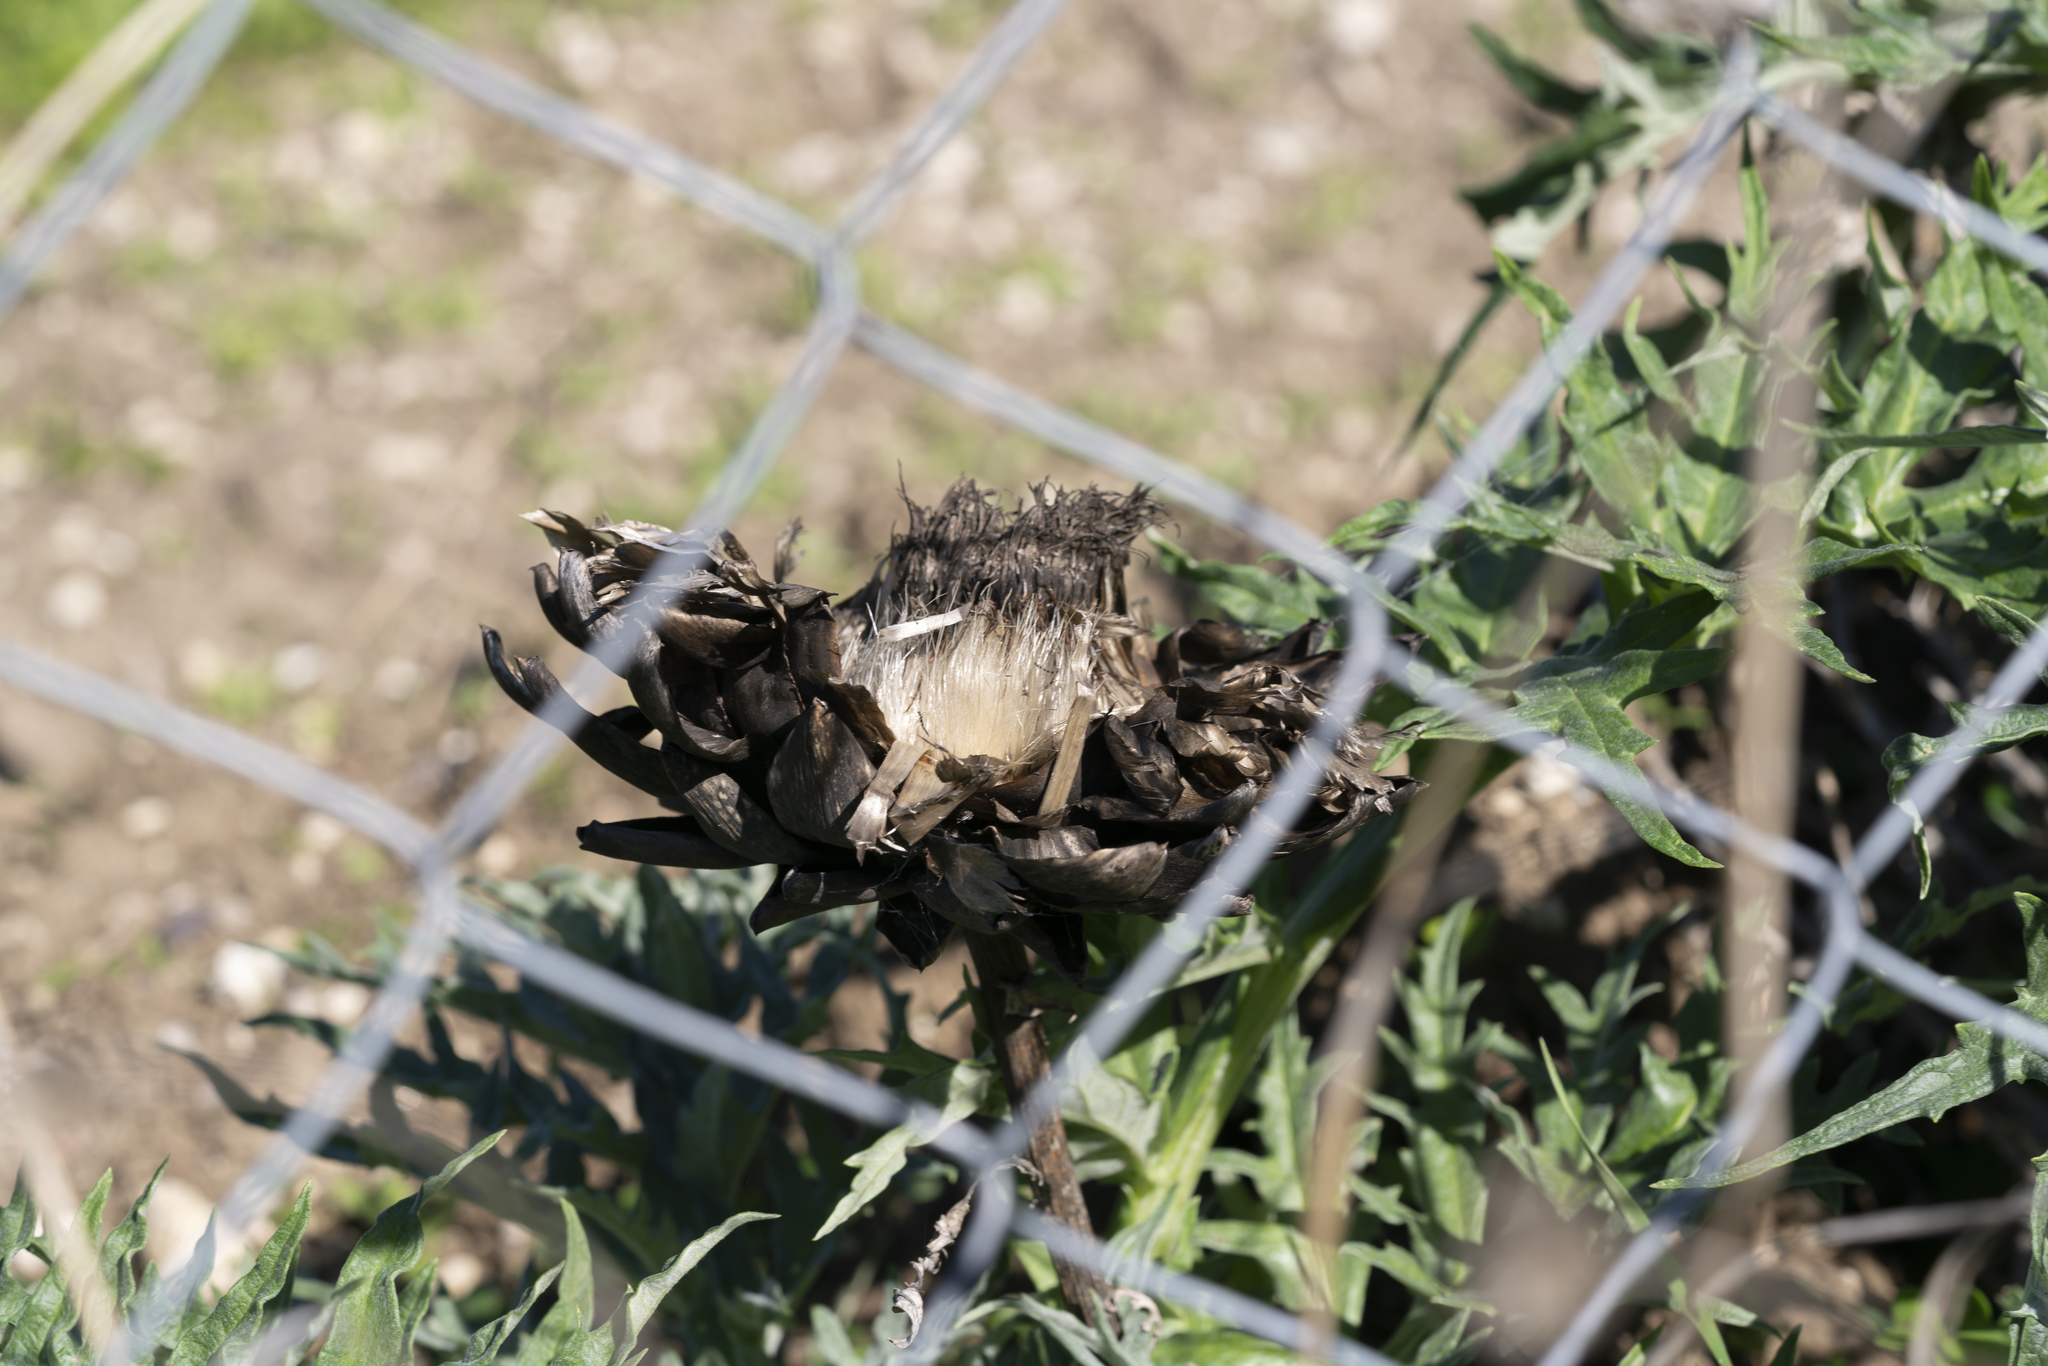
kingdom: Plantae
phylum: Tracheophyta
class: Magnoliopsida
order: Asterales
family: Asteraceae
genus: Cynara
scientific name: Cynara cardunculus
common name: Globe artichoke
